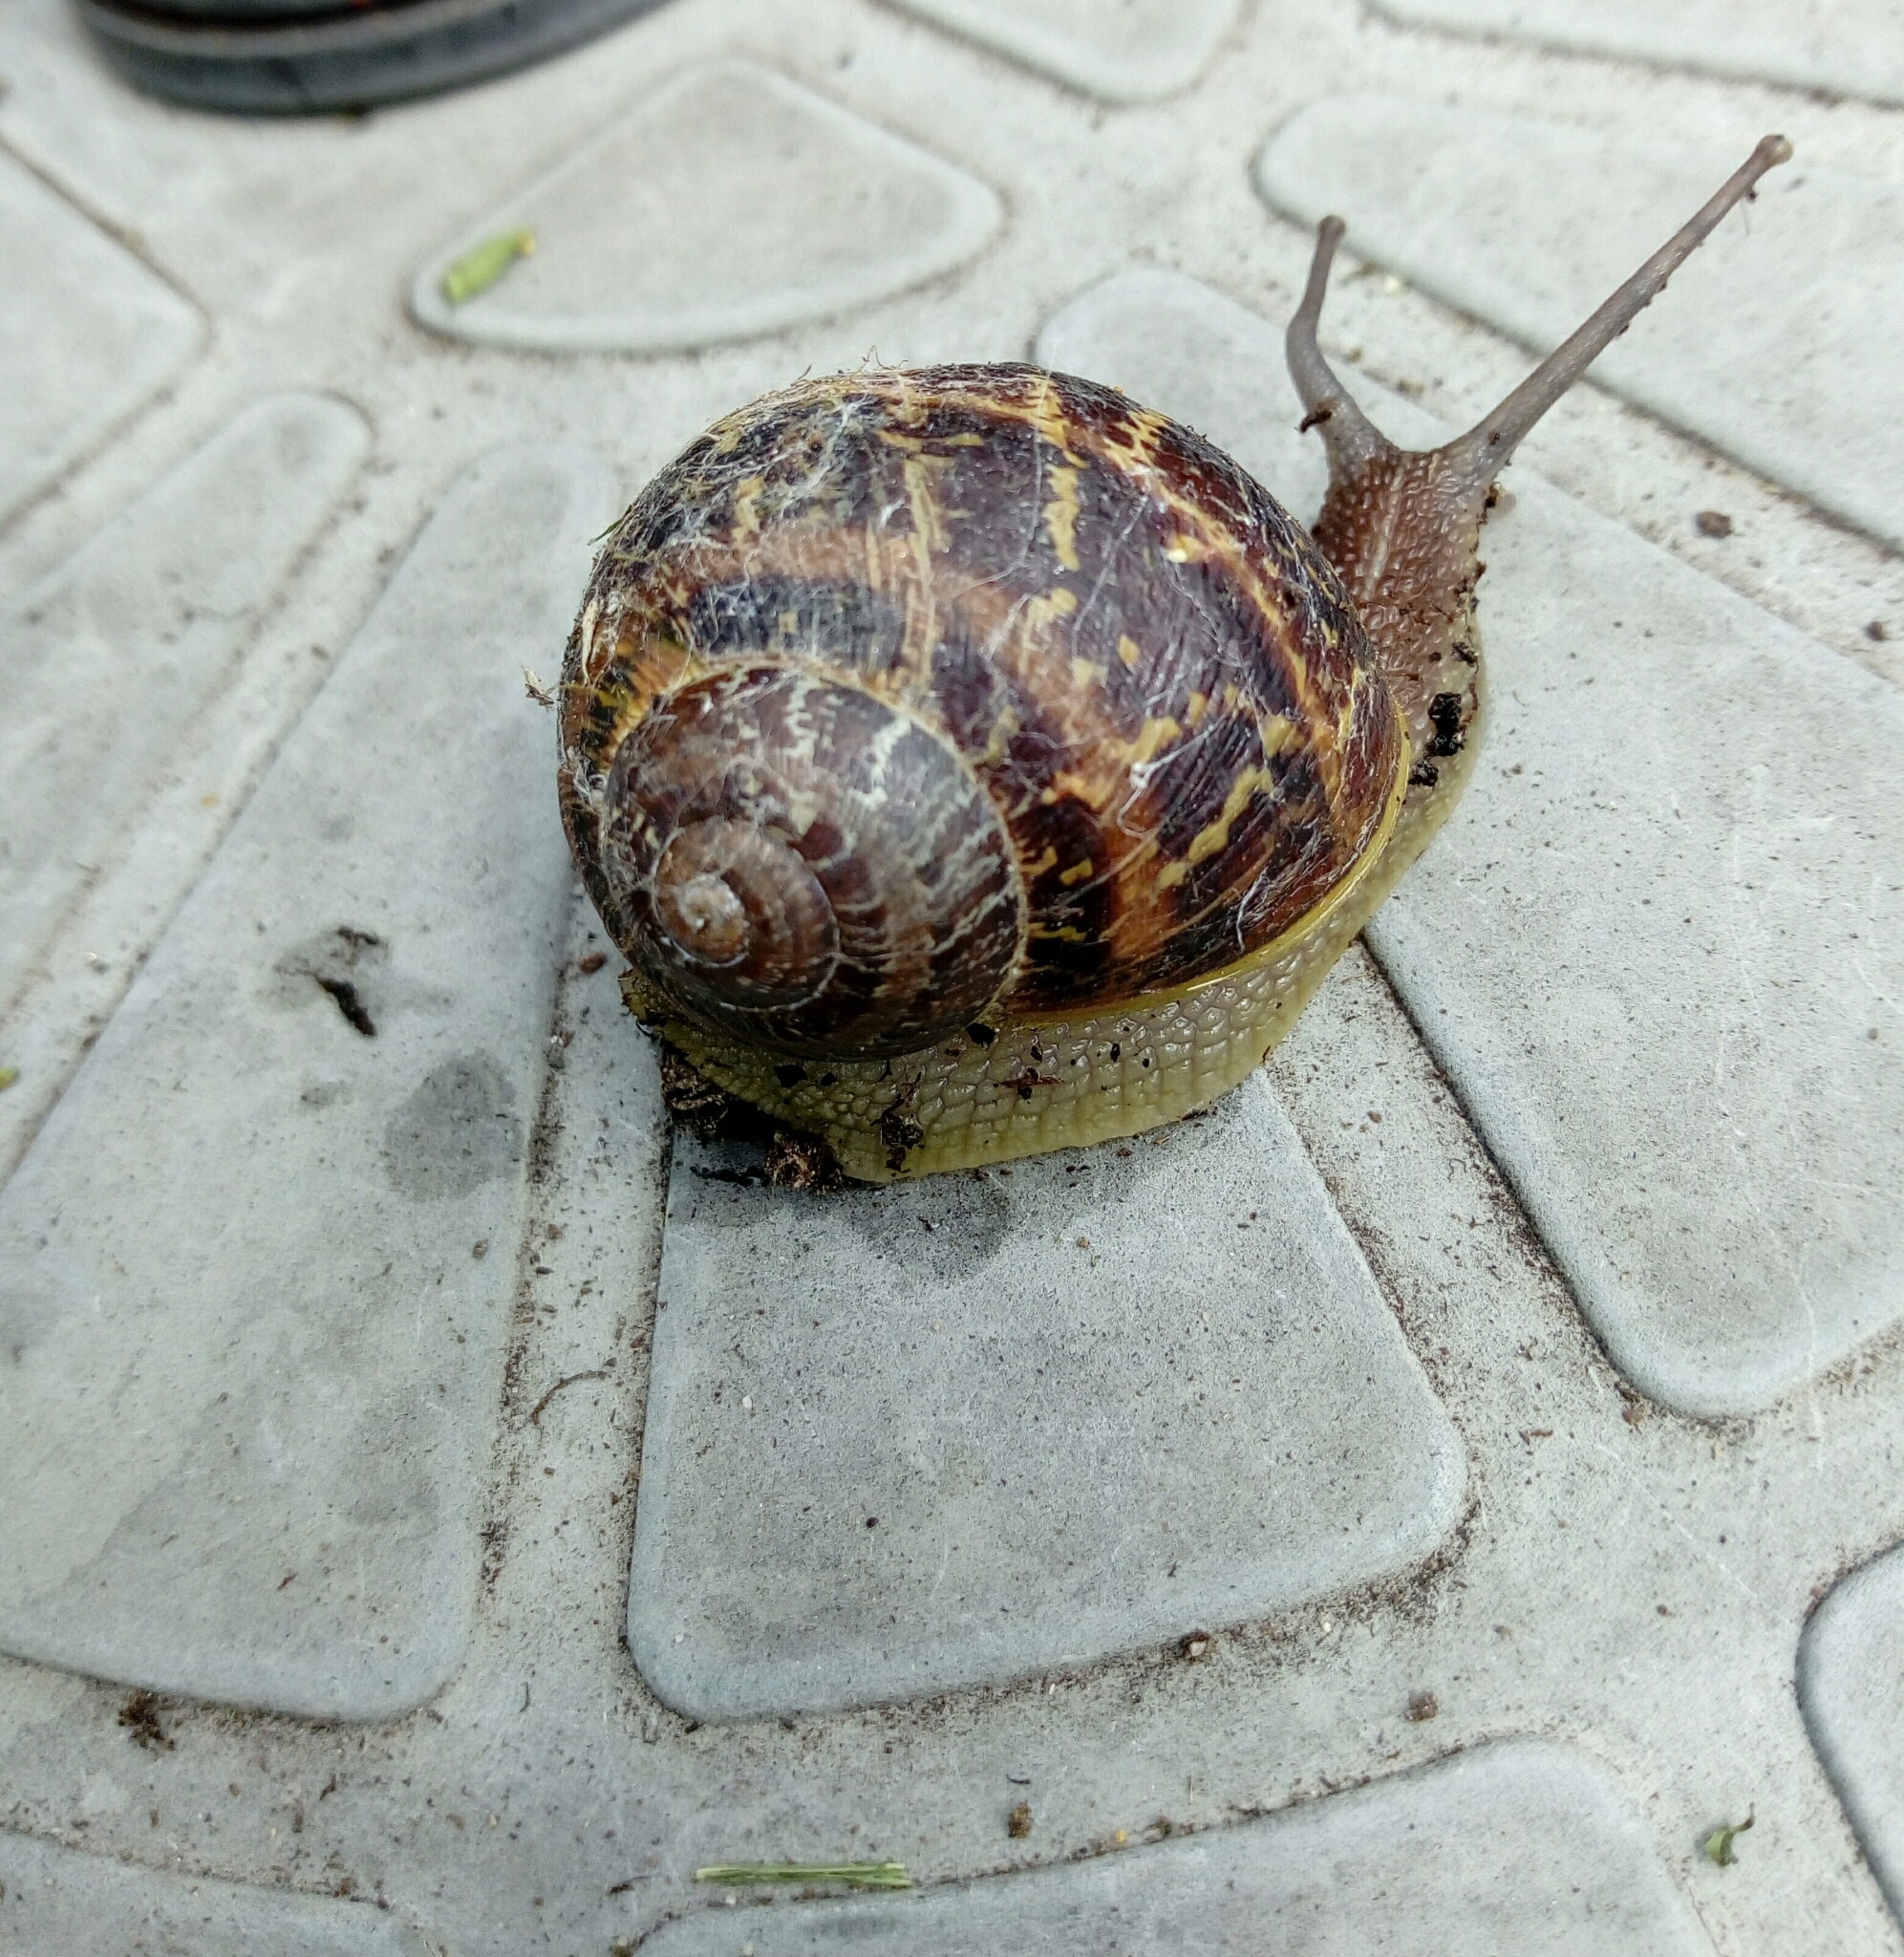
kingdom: Animalia
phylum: Mollusca
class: Gastropoda
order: Stylommatophora
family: Helicidae
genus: Cornu
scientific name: Cornu aspersum
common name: Brown garden snail
